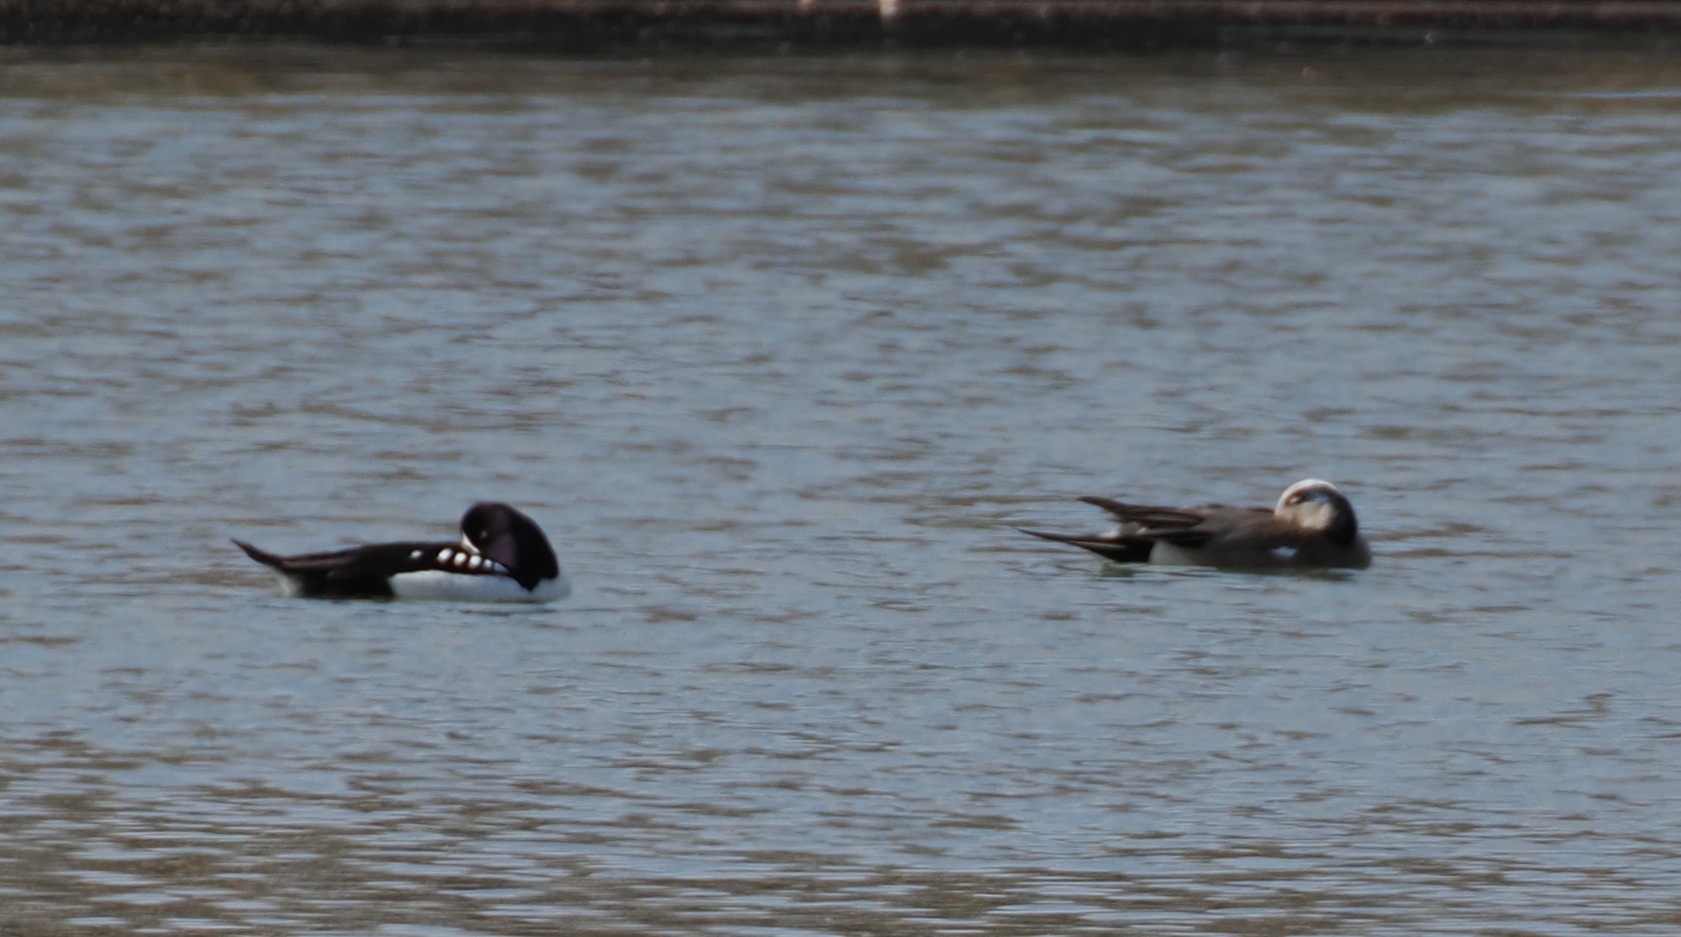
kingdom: Animalia
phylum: Chordata
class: Aves
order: Anseriformes
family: Anatidae
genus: Mareca
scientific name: Mareca americana
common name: American wigeon
